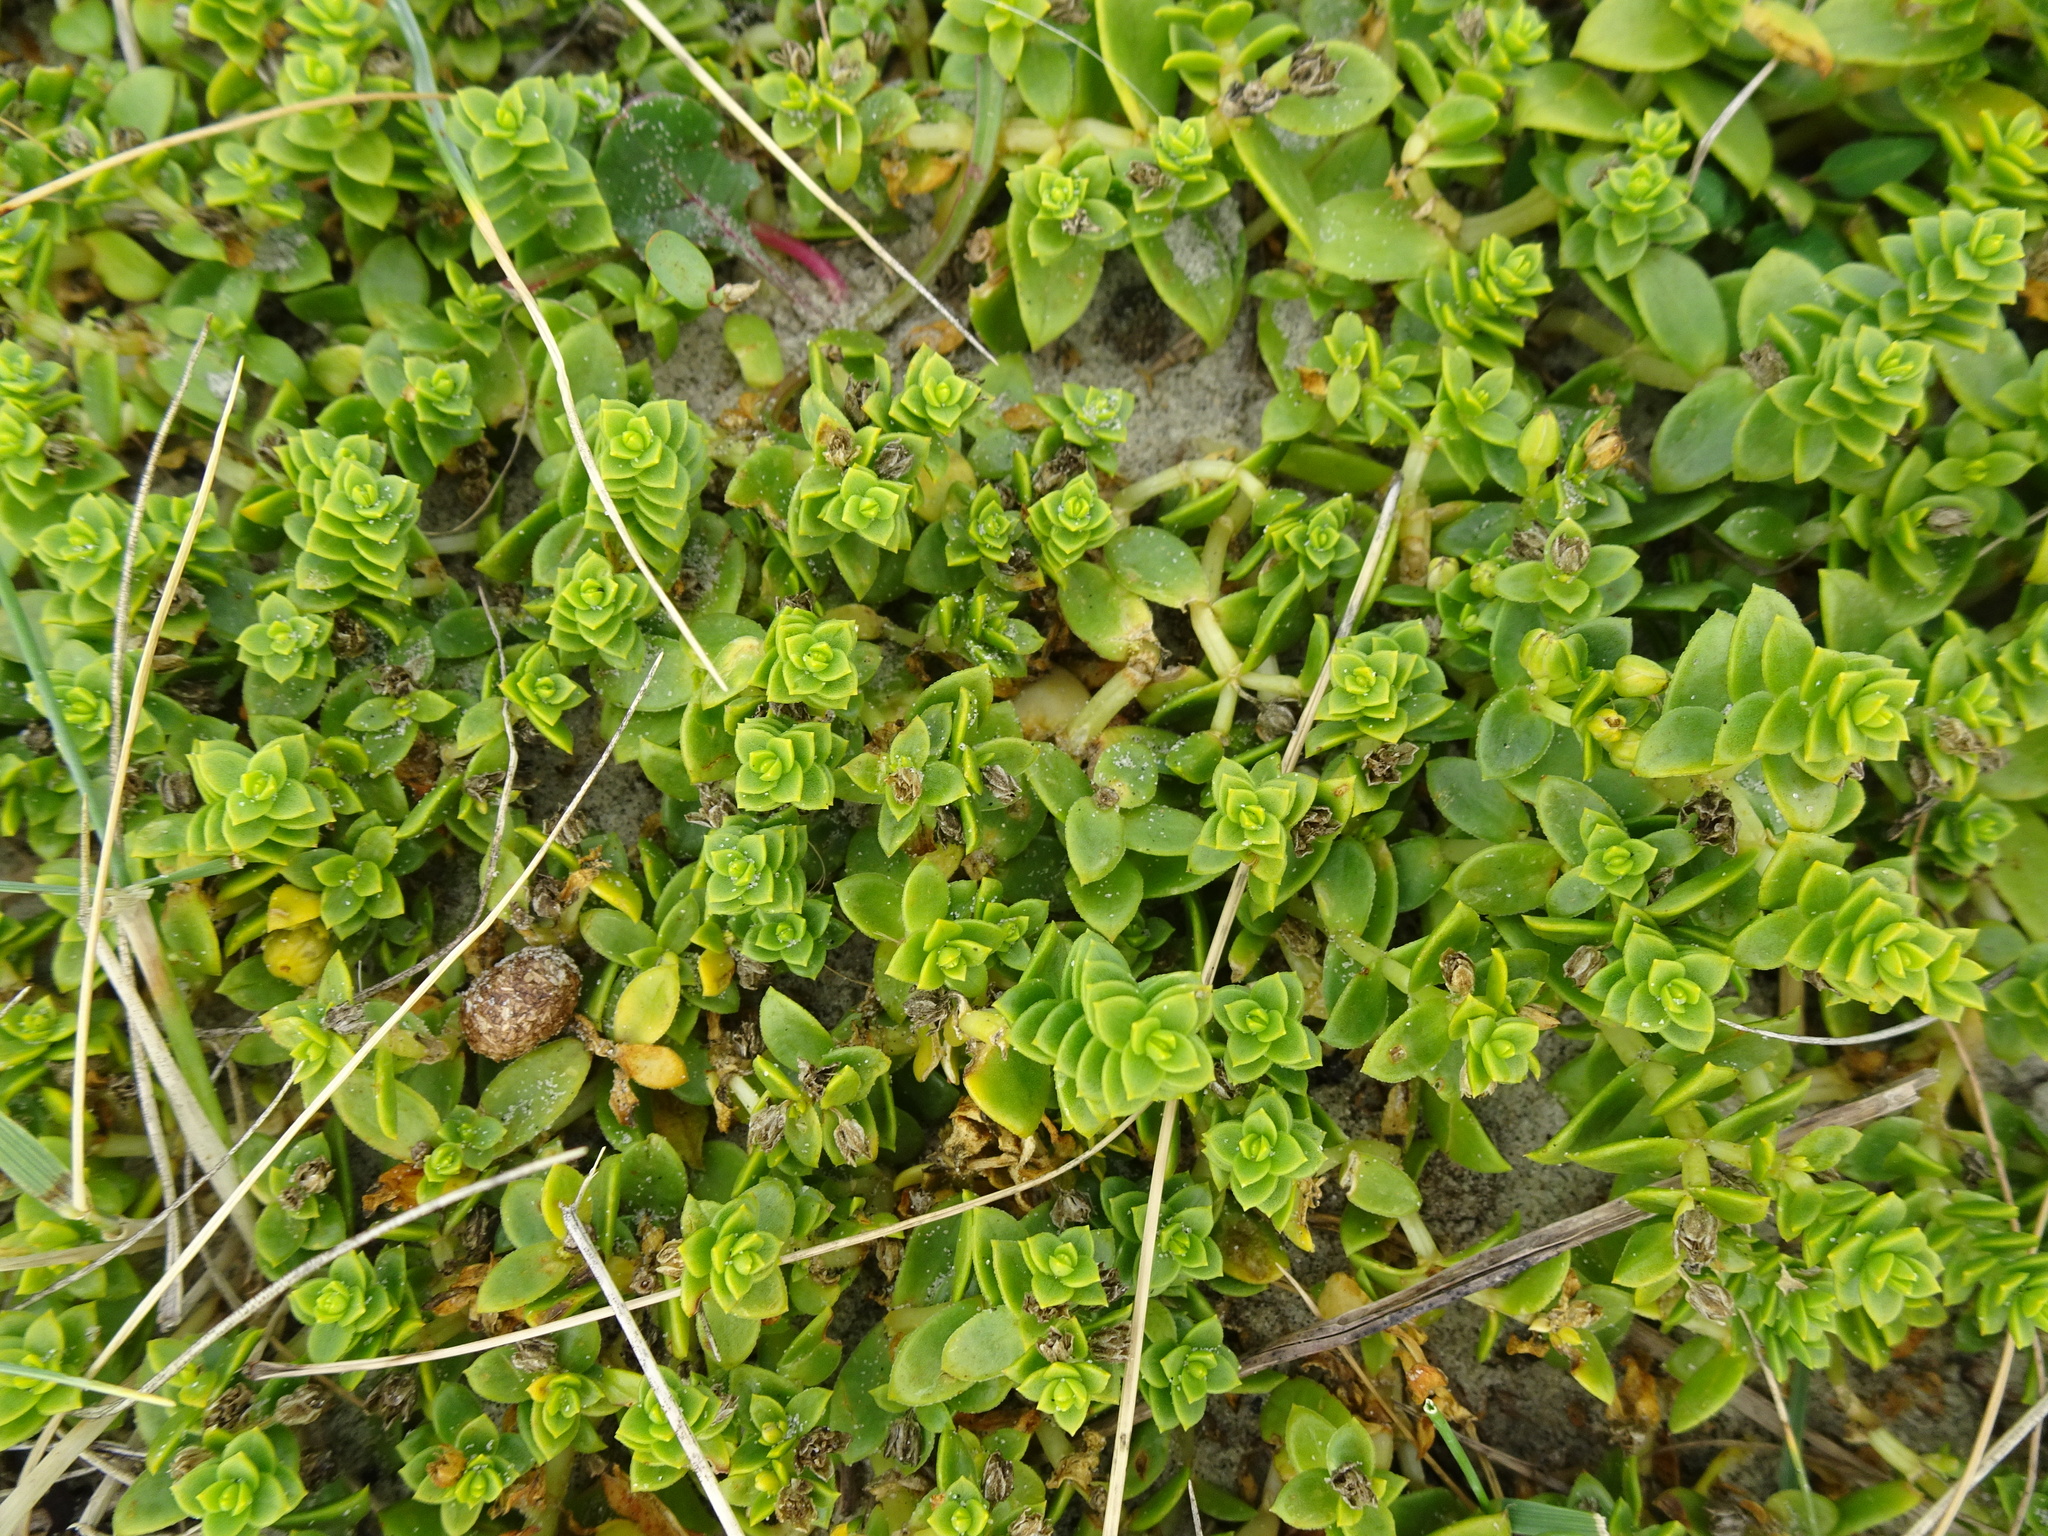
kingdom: Plantae
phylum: Tracheophyta
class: Magnoliopsida
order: Caryophyllales
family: Caryophyllaceae
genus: Honckenya
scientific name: Honckenya peploides
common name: Sea sandwort
